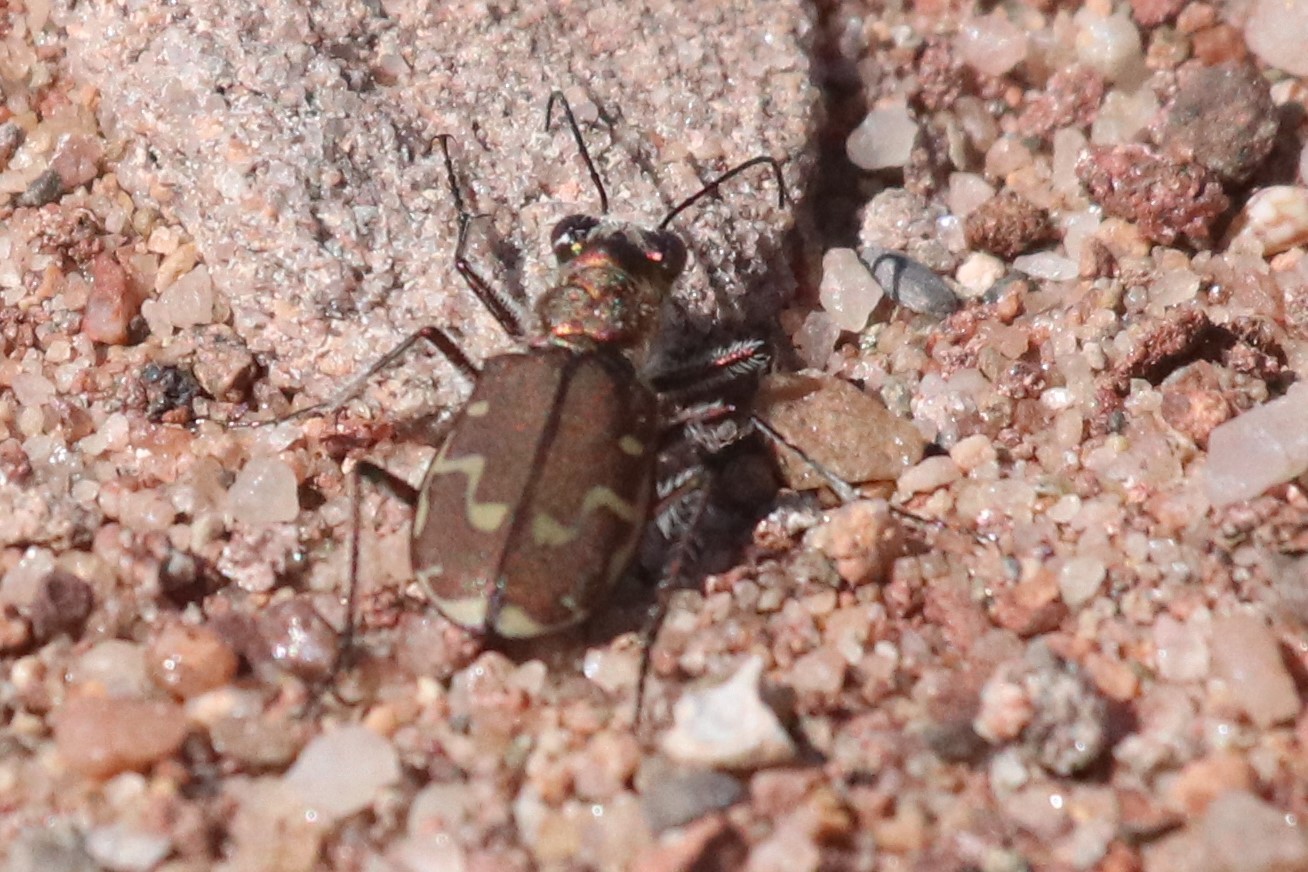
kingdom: Animalia
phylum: Arthropoda
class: Insecta
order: Coleoptera
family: Carabidae
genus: Cicindela
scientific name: Cicindela repanda
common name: Bronzed tiger beetle
